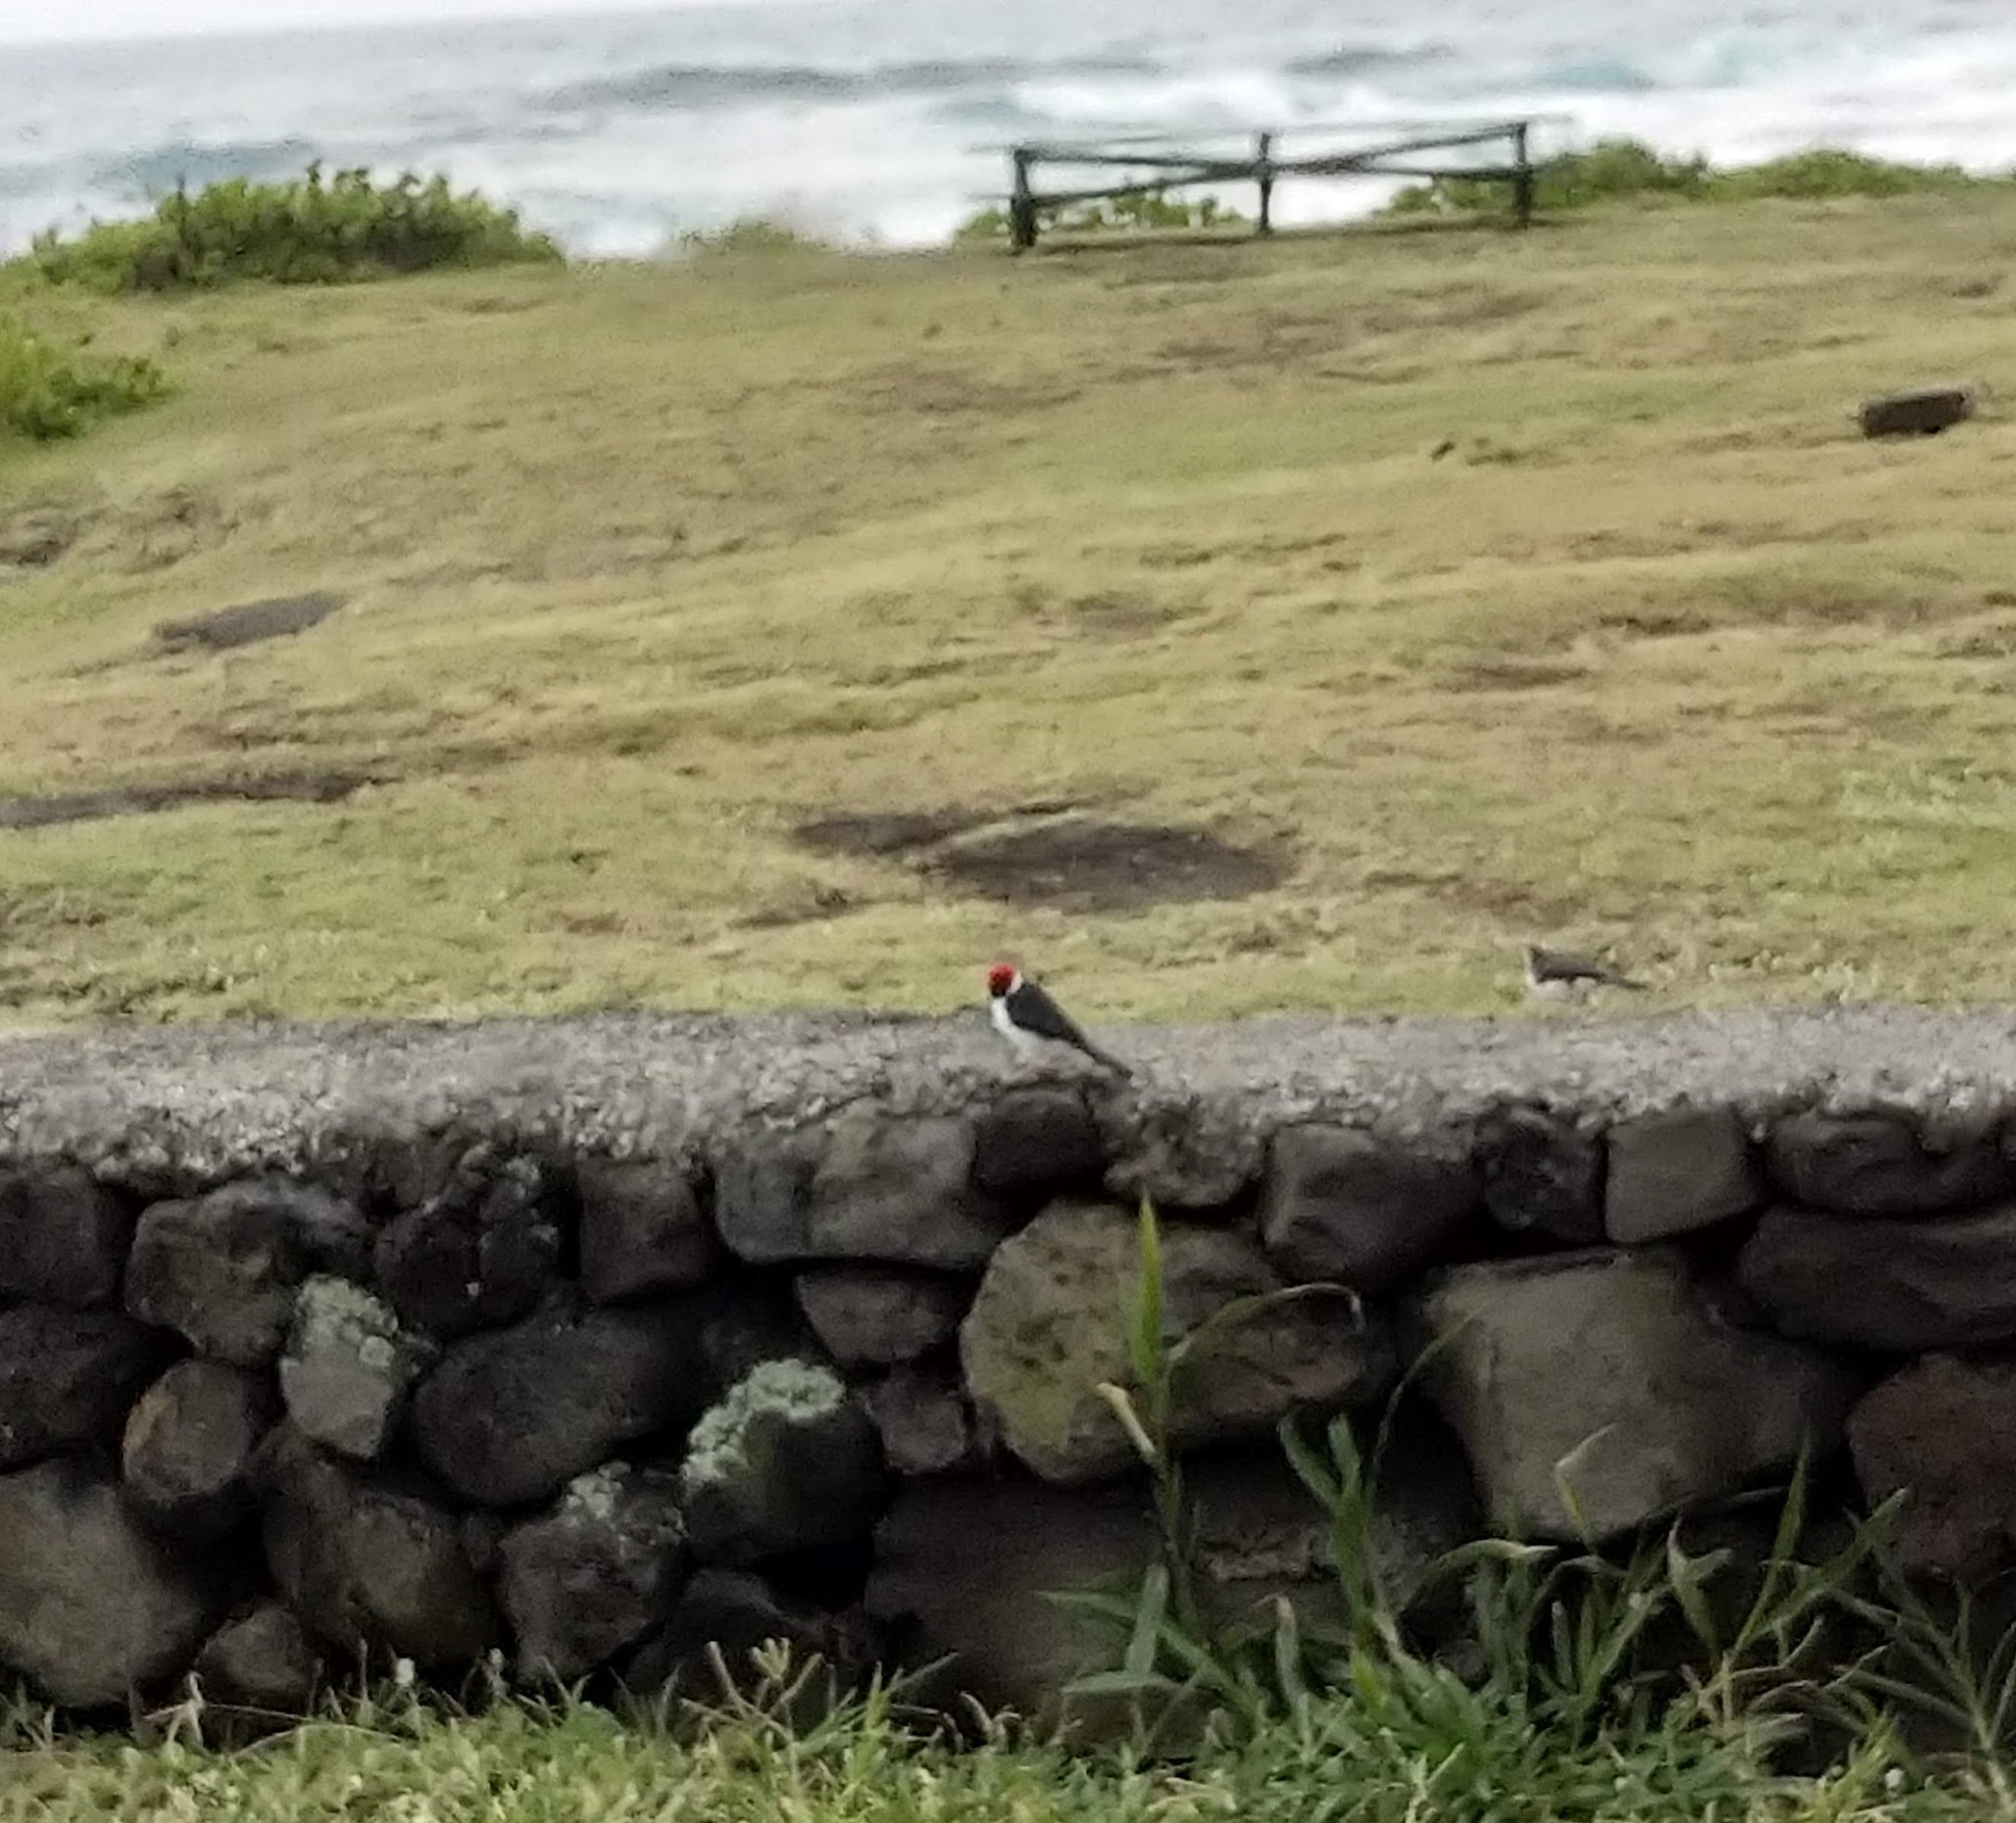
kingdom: Animalia
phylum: Chordata
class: Aves
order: Passeriformes
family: Thraupidae
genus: Paroaria
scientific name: Paroaria capitata
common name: Yellow-billed cardinal
